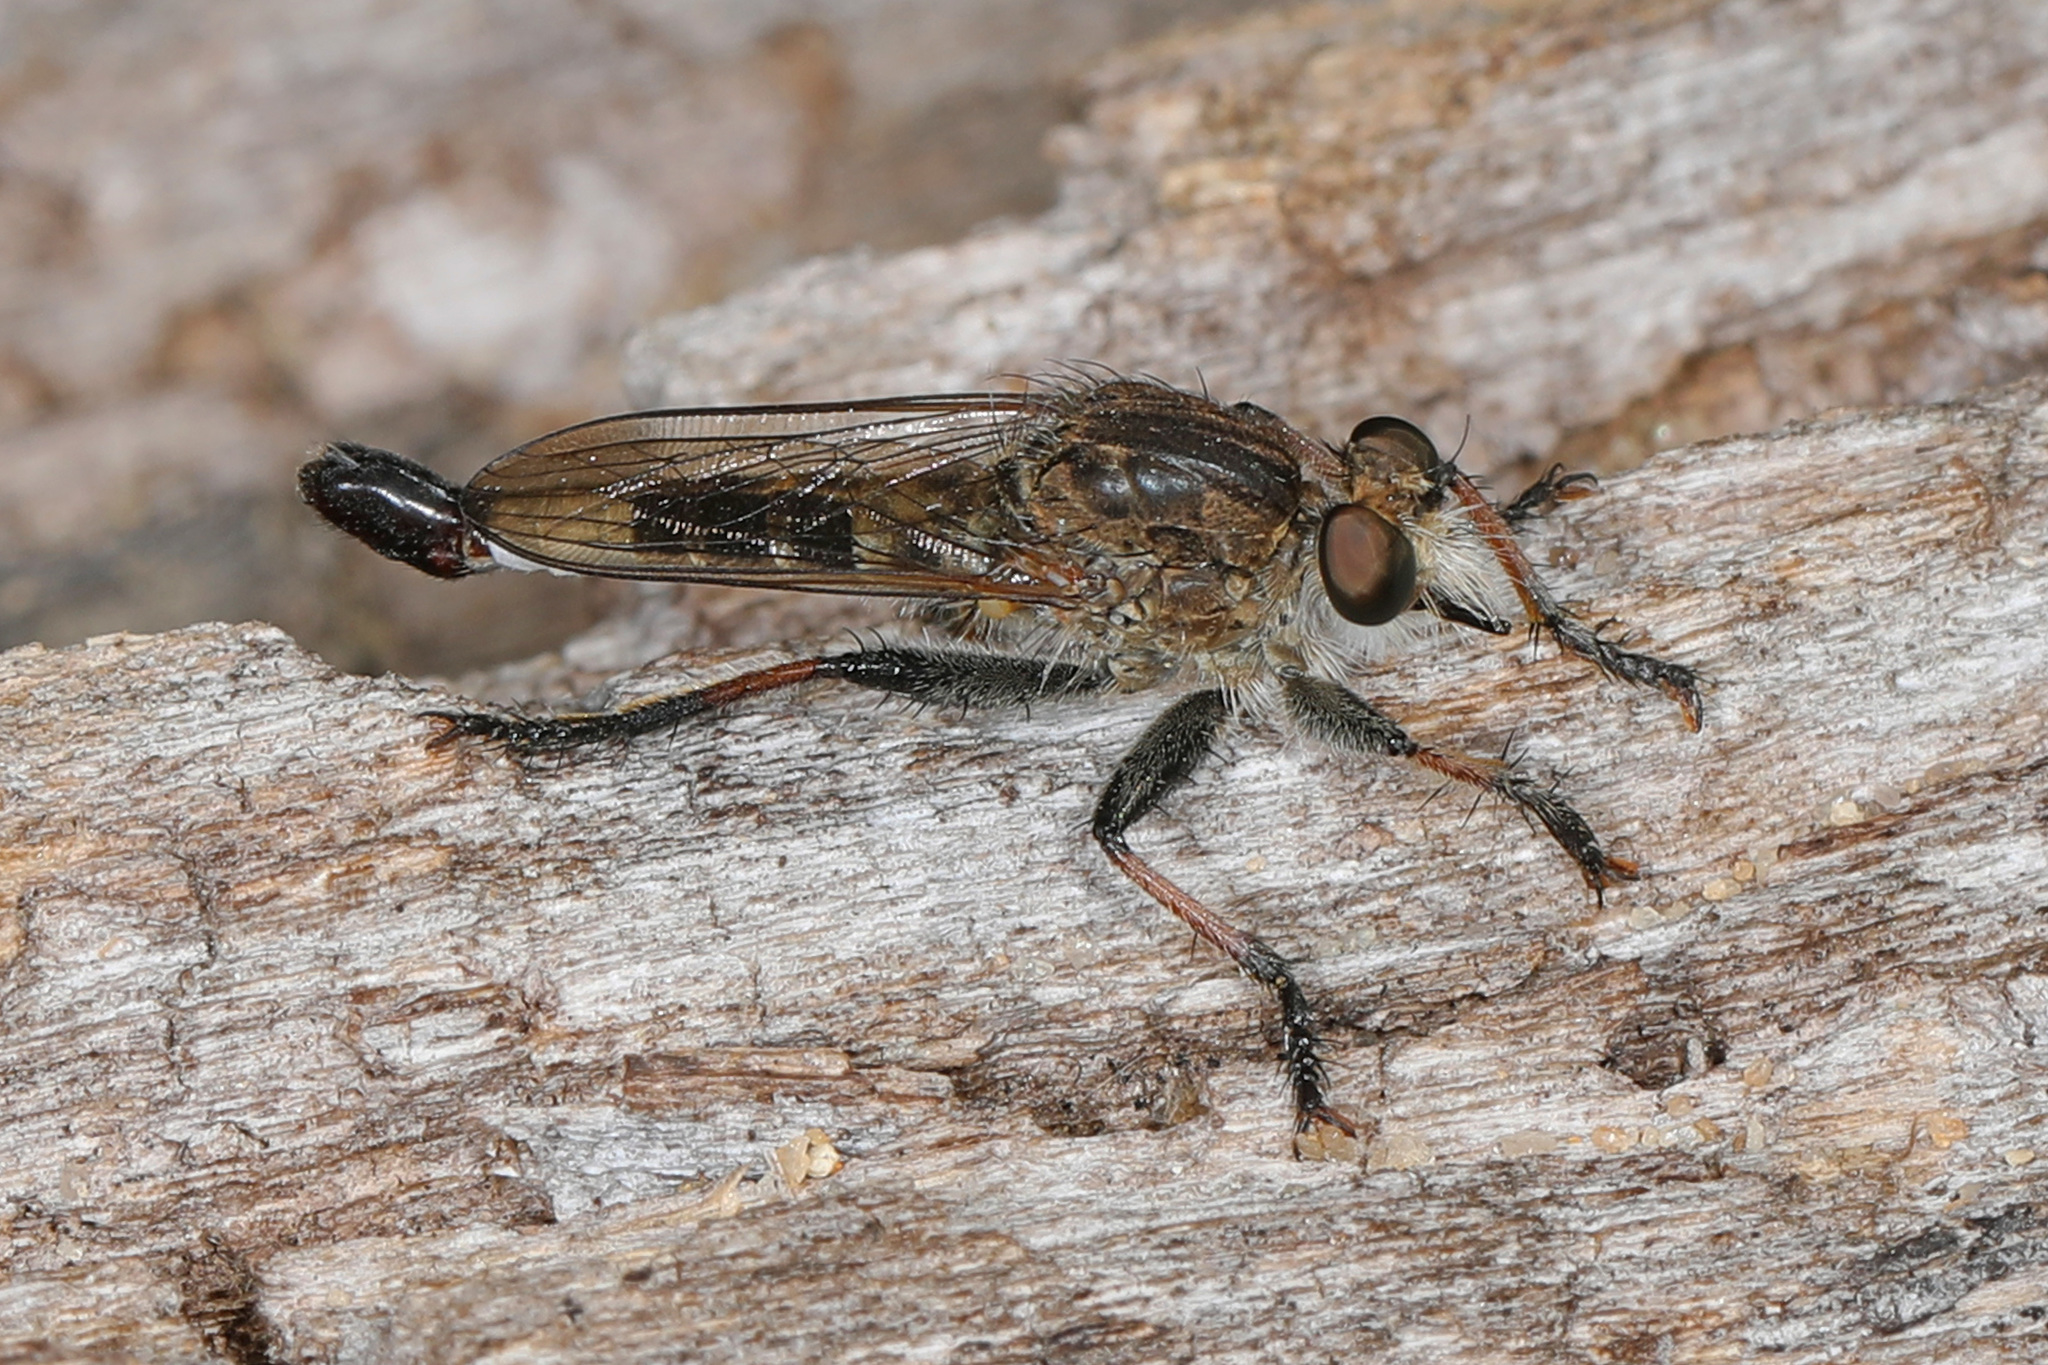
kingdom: Animalia
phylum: Arthropoda
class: Insecta
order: Diptera
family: Asilidae
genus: Efferia
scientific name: Efferia albibarbis
